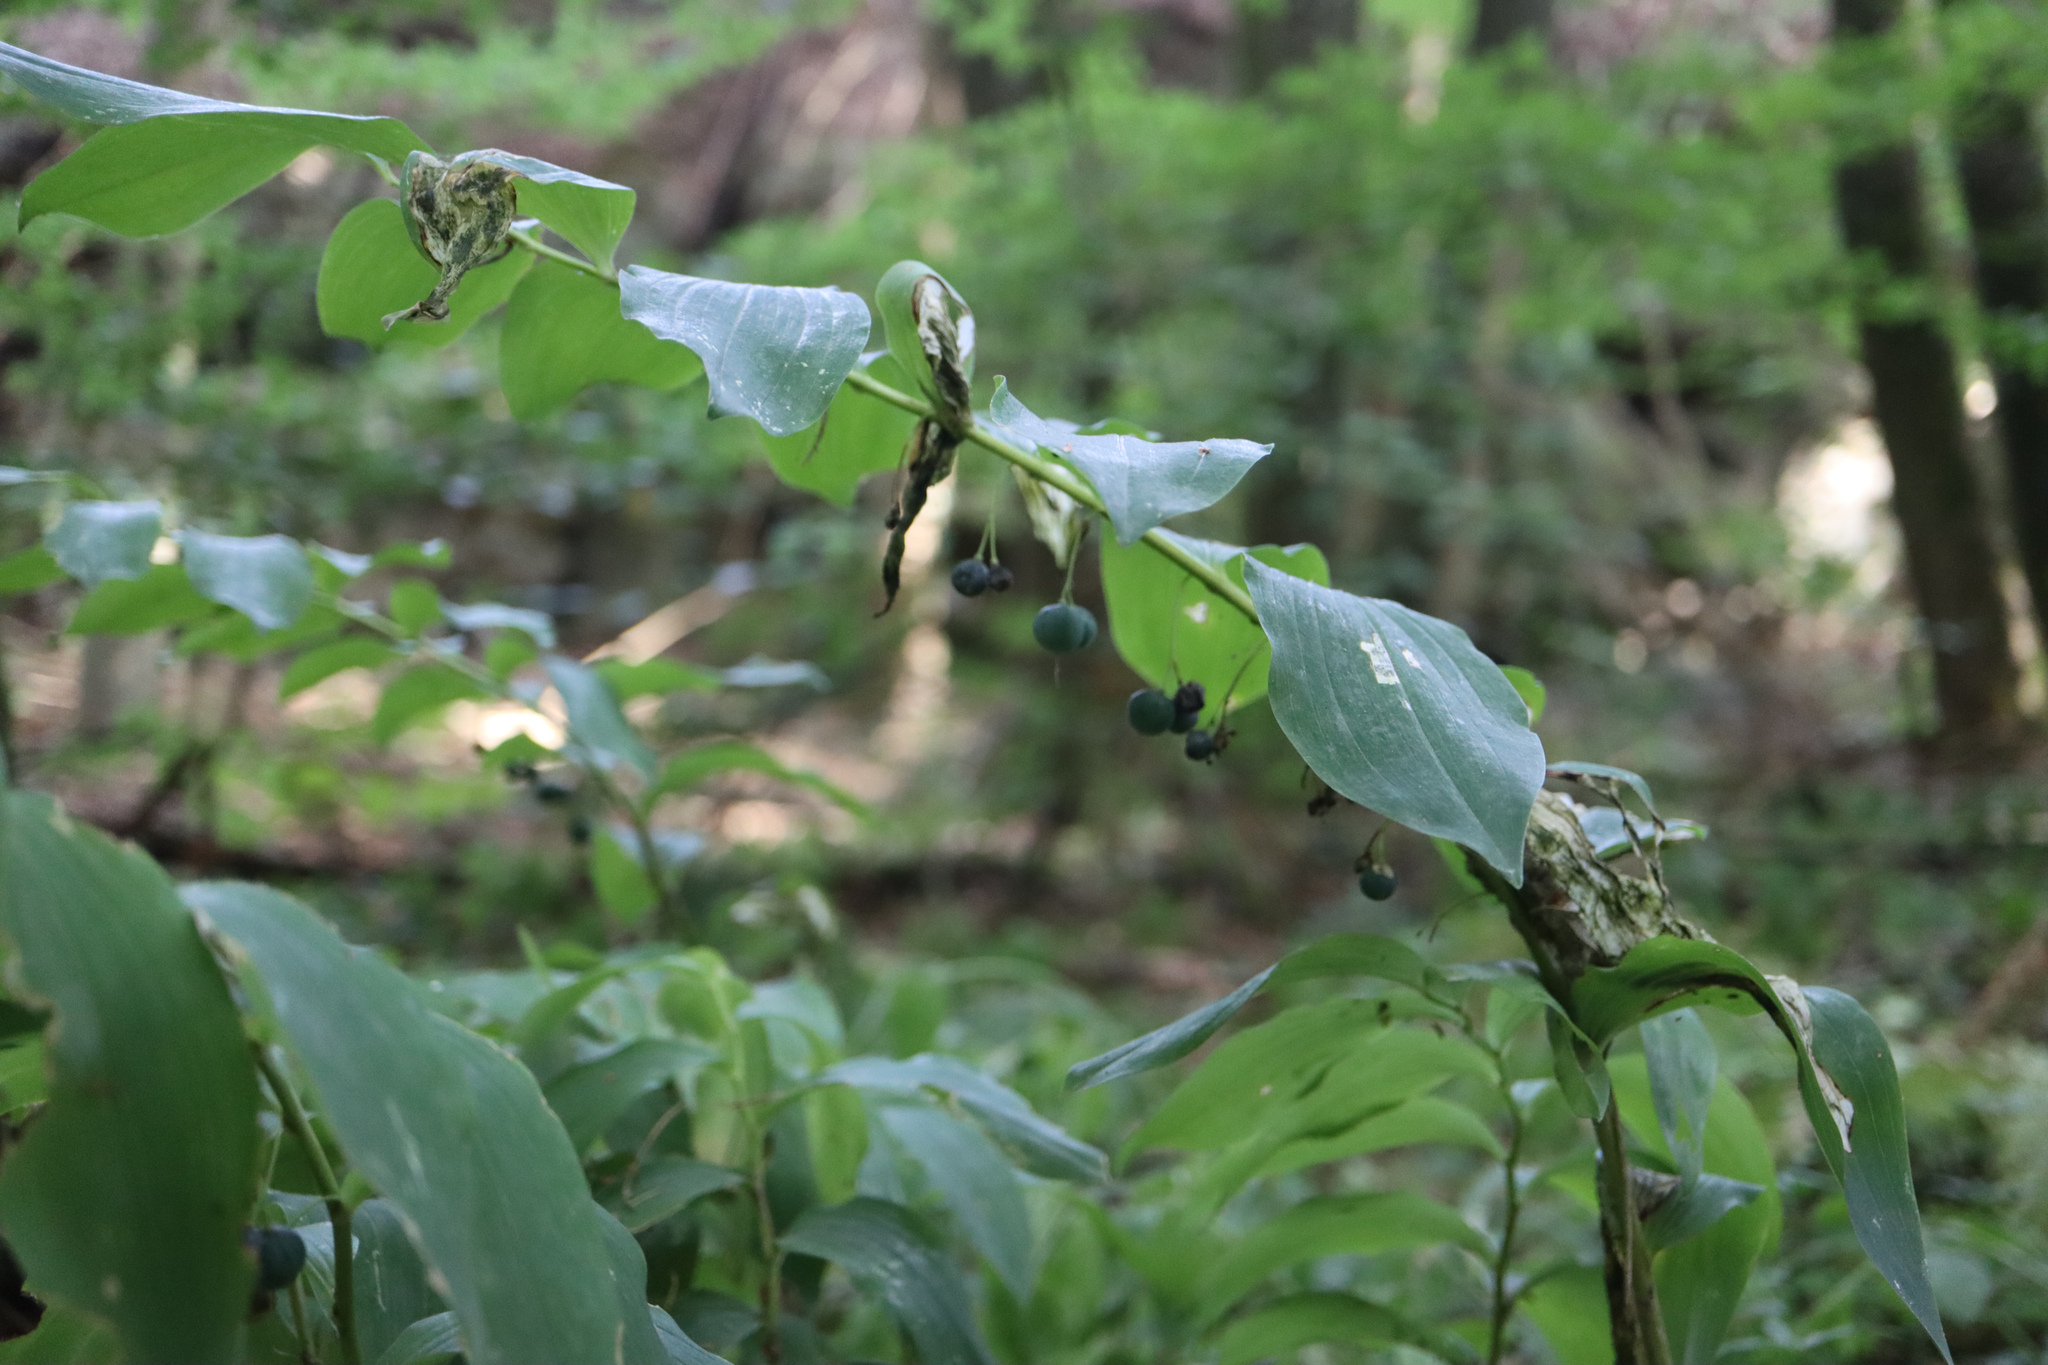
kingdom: Plantae
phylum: Tracheophyta
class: Liliopsida
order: Asparagales
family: Asparagaceae
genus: Polygonatum
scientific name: Polygonatum multiflorum
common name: Solomon's-seal
